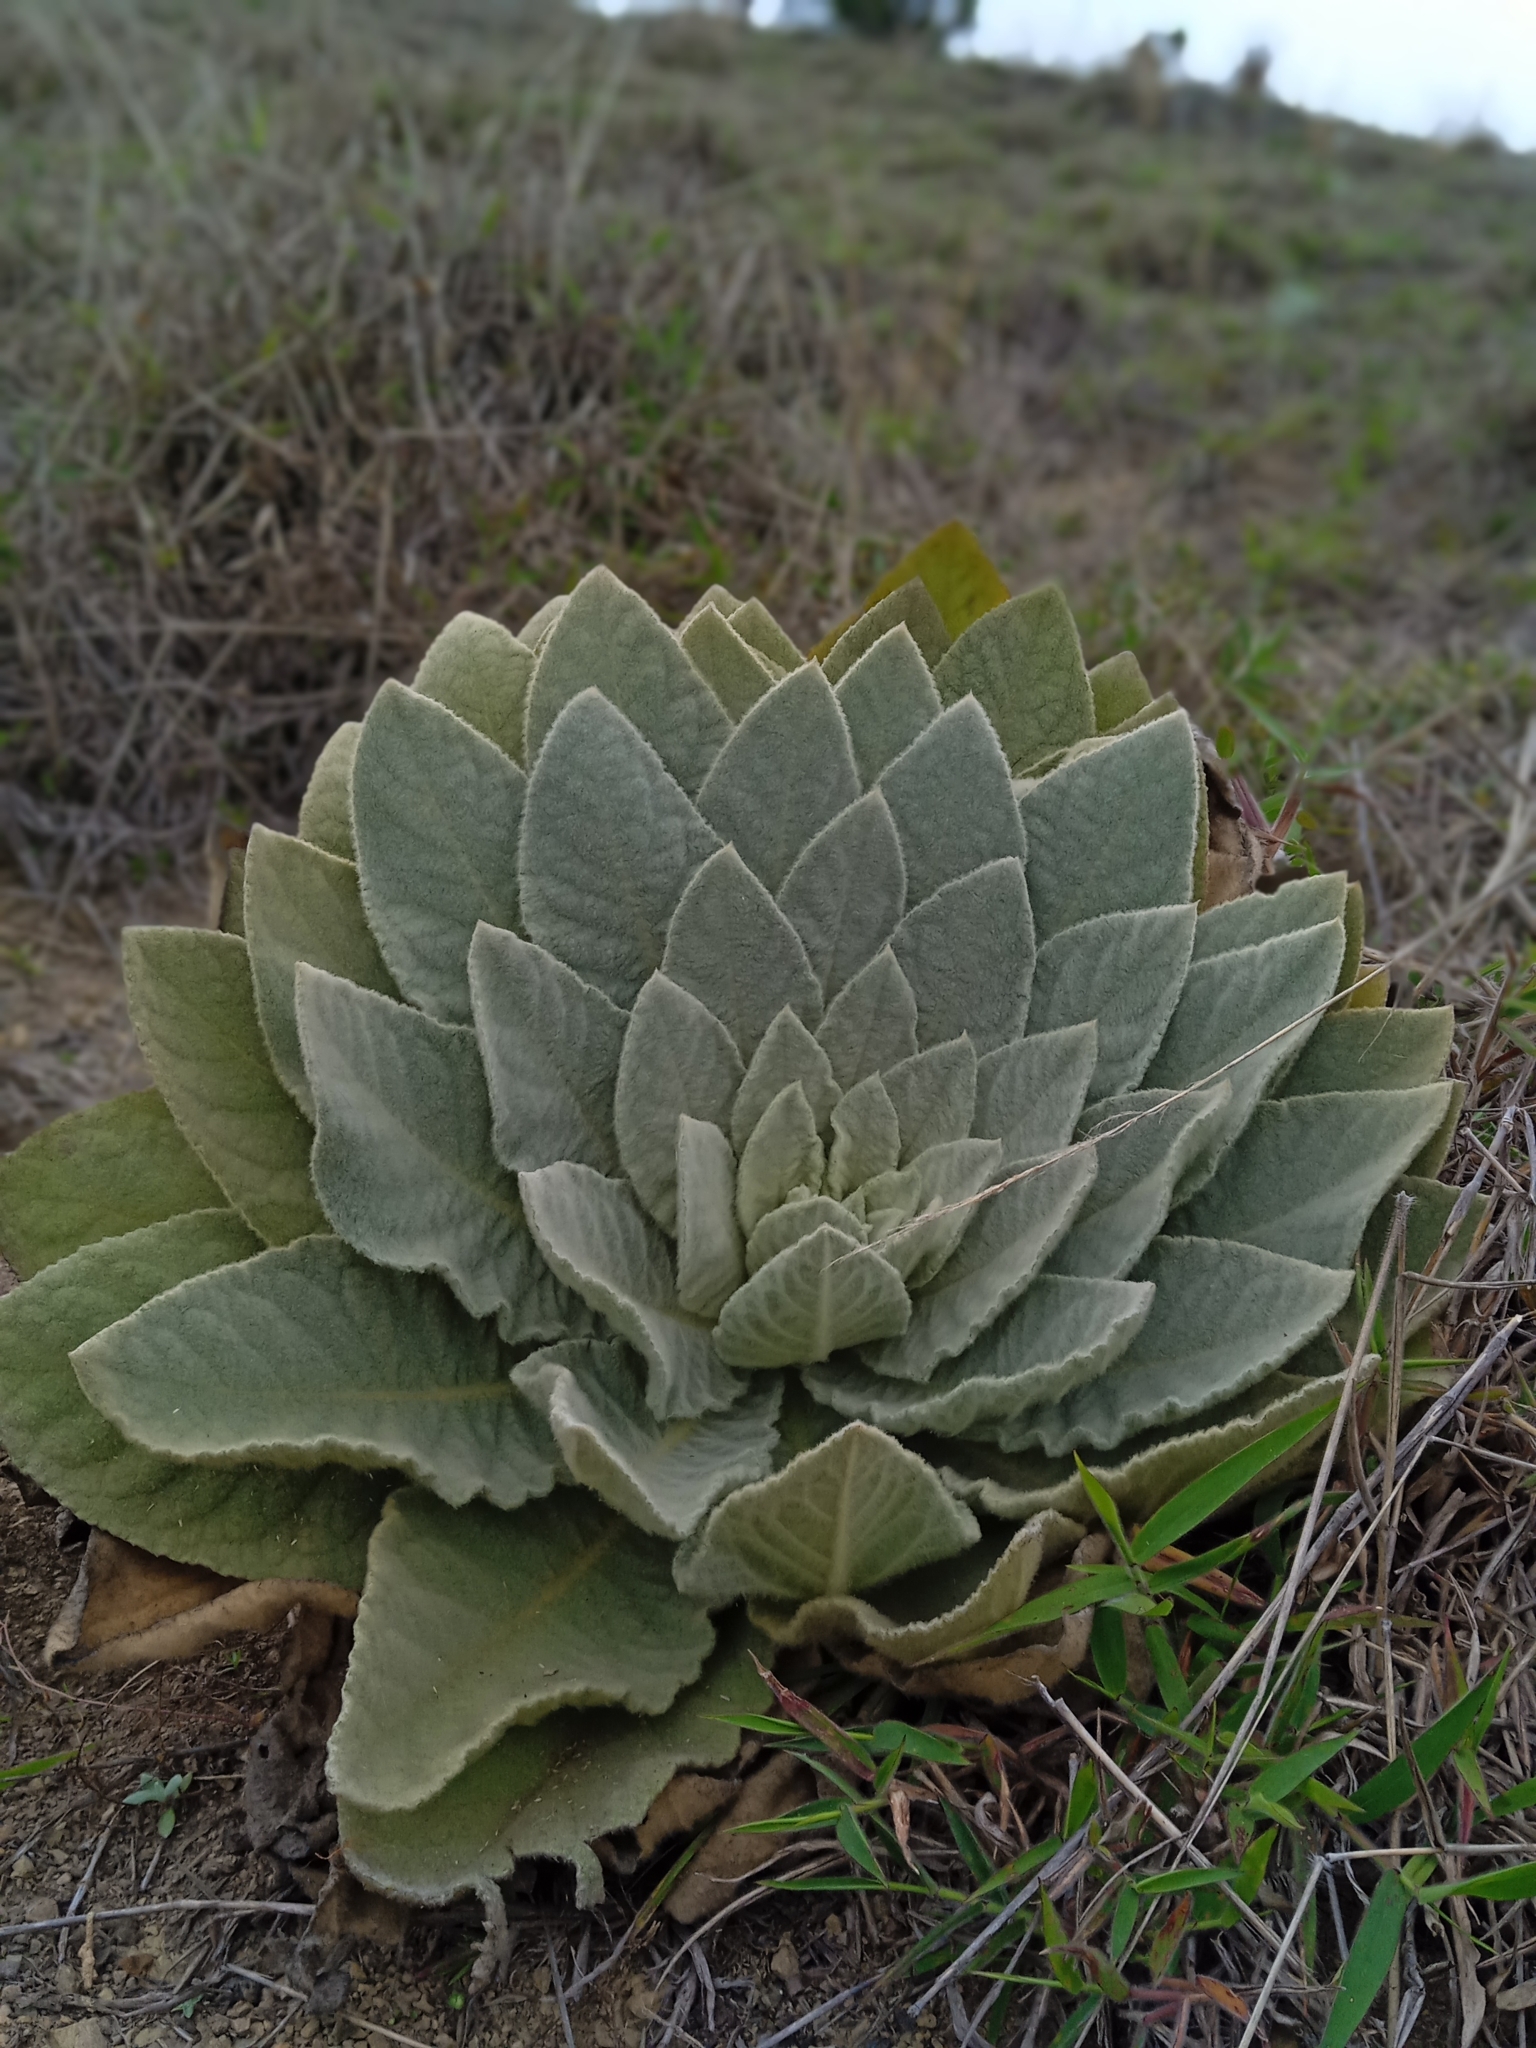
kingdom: Plantae
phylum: Tracheophyta
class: Magnoliopsida
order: Lamiales
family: Scrophulariaceae
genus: Verbascum
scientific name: Verbascum thapsus
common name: Common mullein
